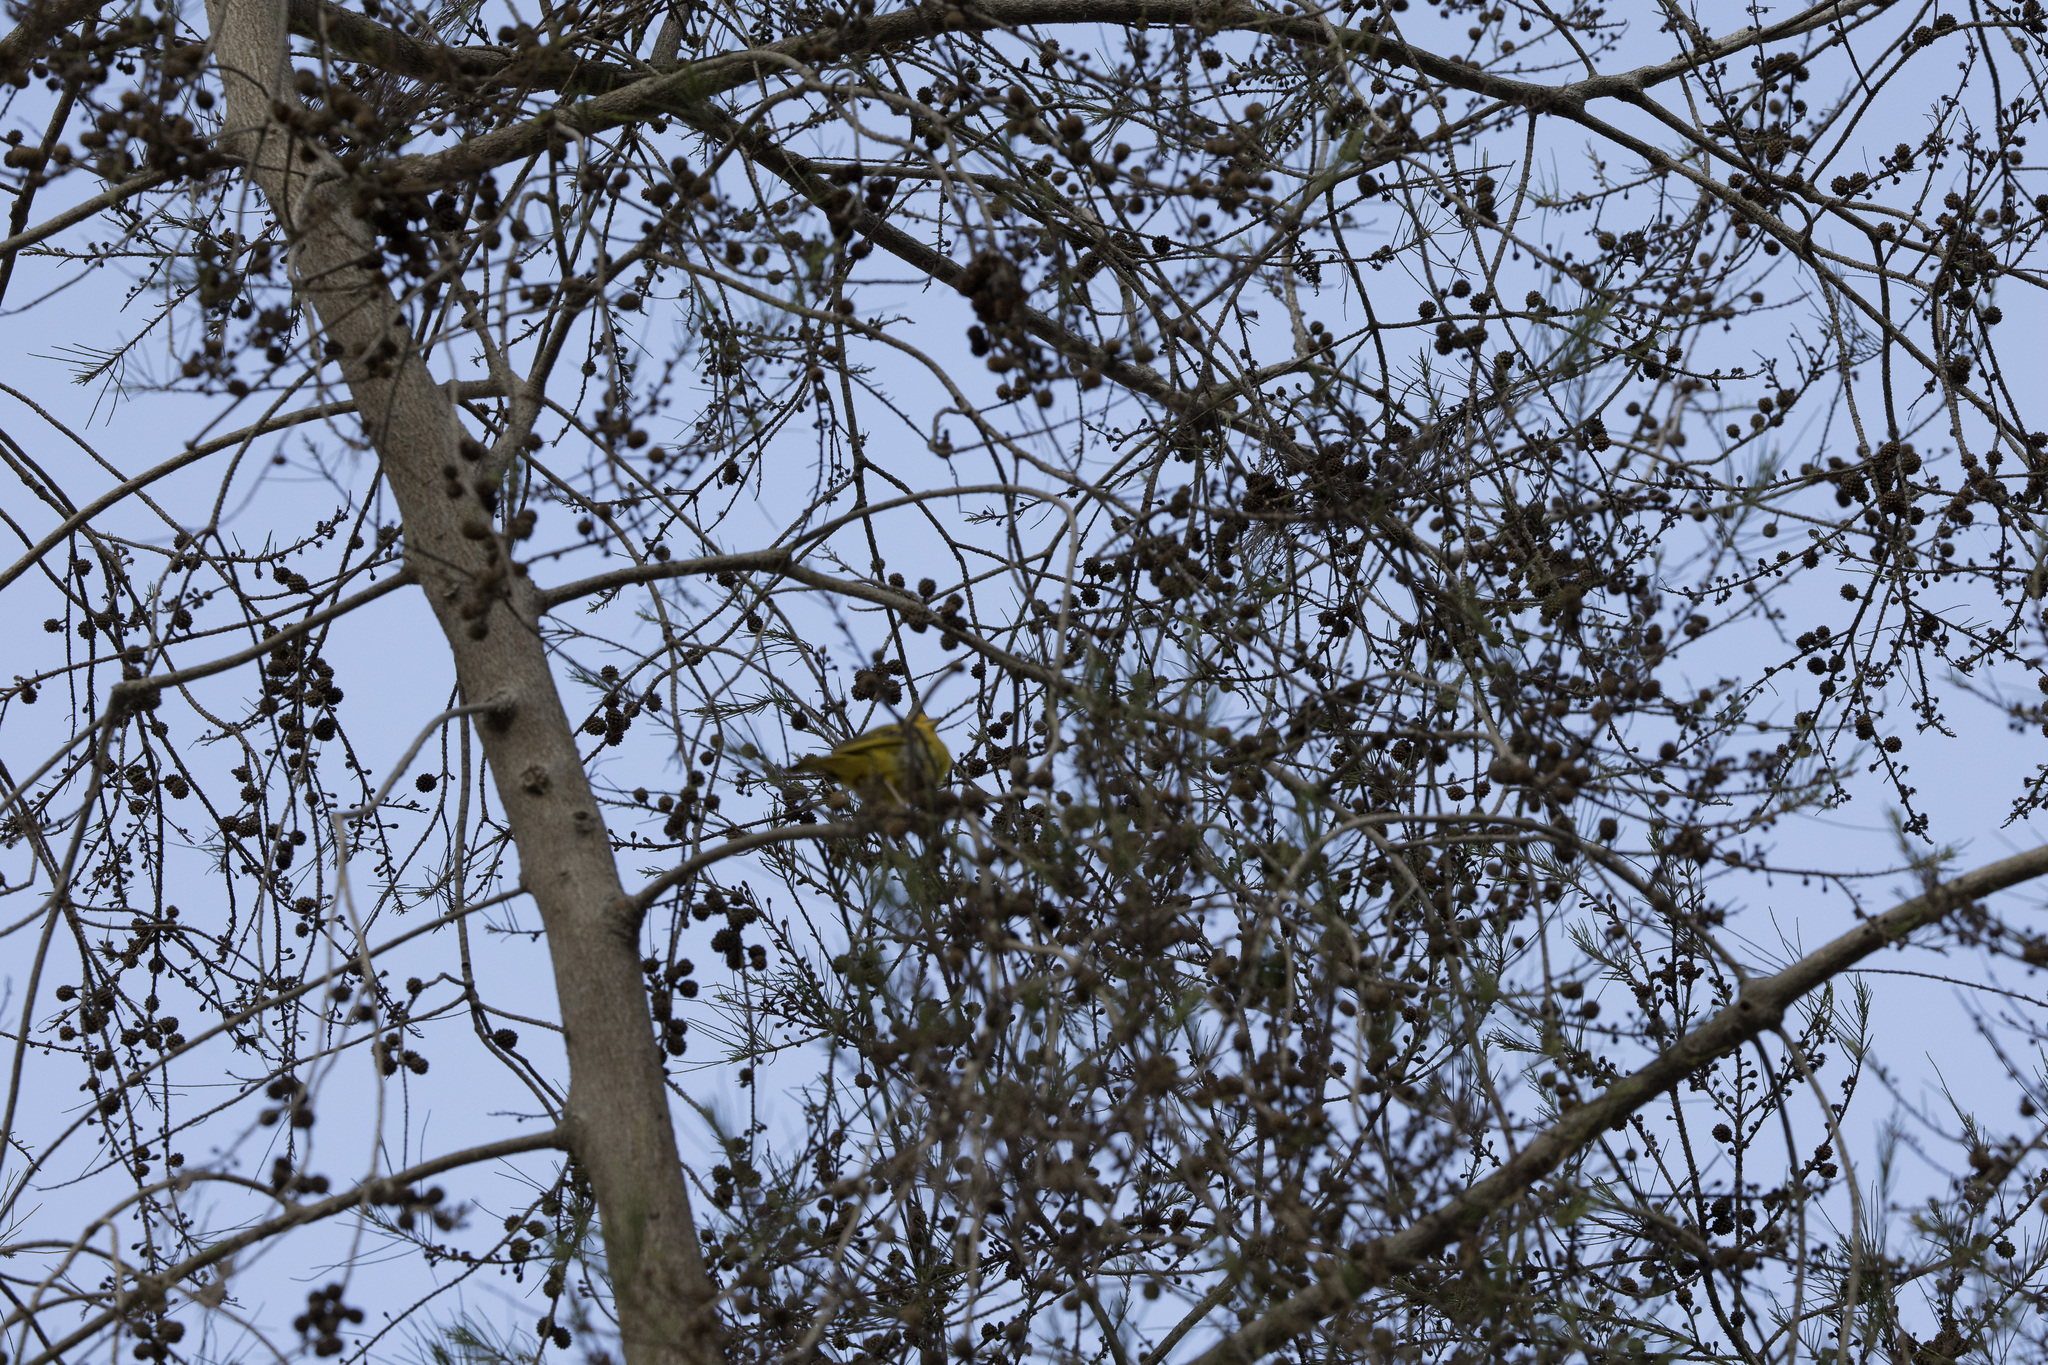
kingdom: Animalia
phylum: Chordata
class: Aves
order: Passeriformes
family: Thraupidae
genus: Sicalis
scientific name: Sicalis flaveola
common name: Saffron finch
